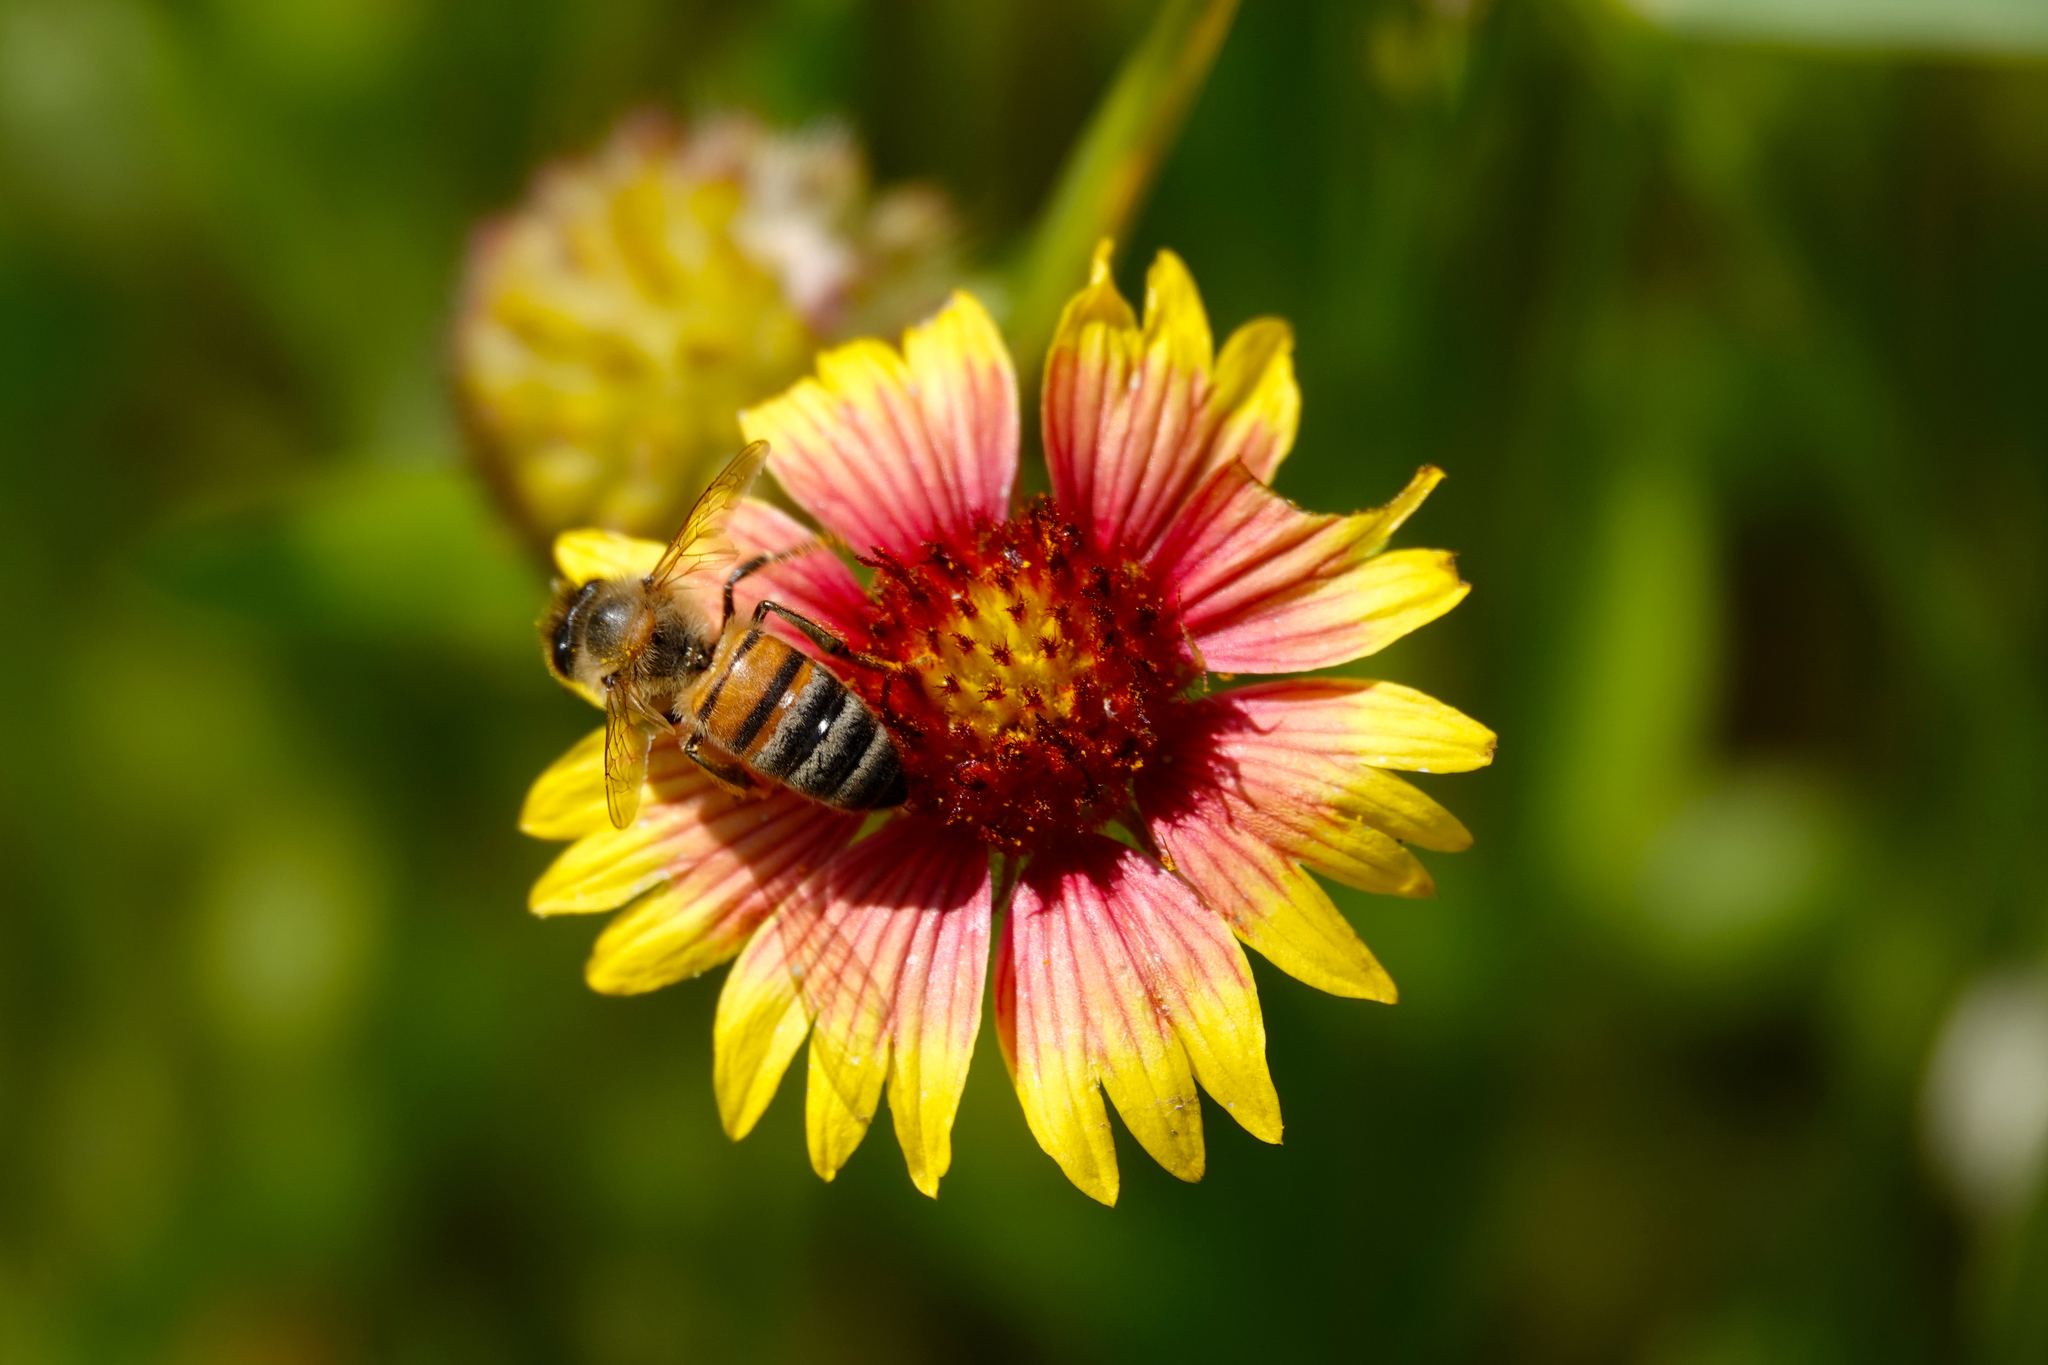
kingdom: Plantae
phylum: Tracheophyta
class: Magnoliopsida
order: Asterales
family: Asteraceae
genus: Gaillardia
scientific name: Gaillardia pulchella
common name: Firewheel
